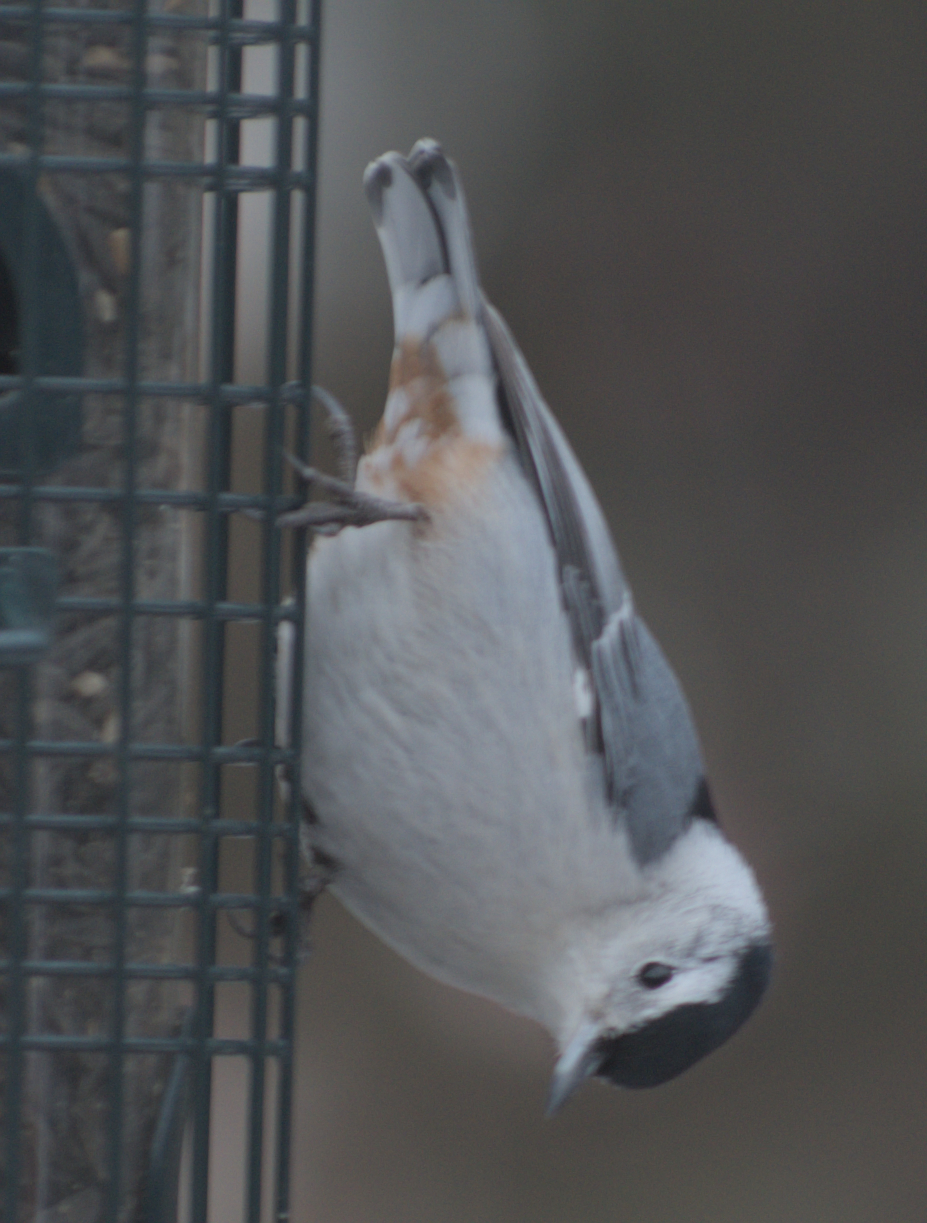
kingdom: Animalia
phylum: Chordata
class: Aves
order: Passeriformes
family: Sittidae
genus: Sitta
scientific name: Sitta carolinensis
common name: White-breasted nuthatch
